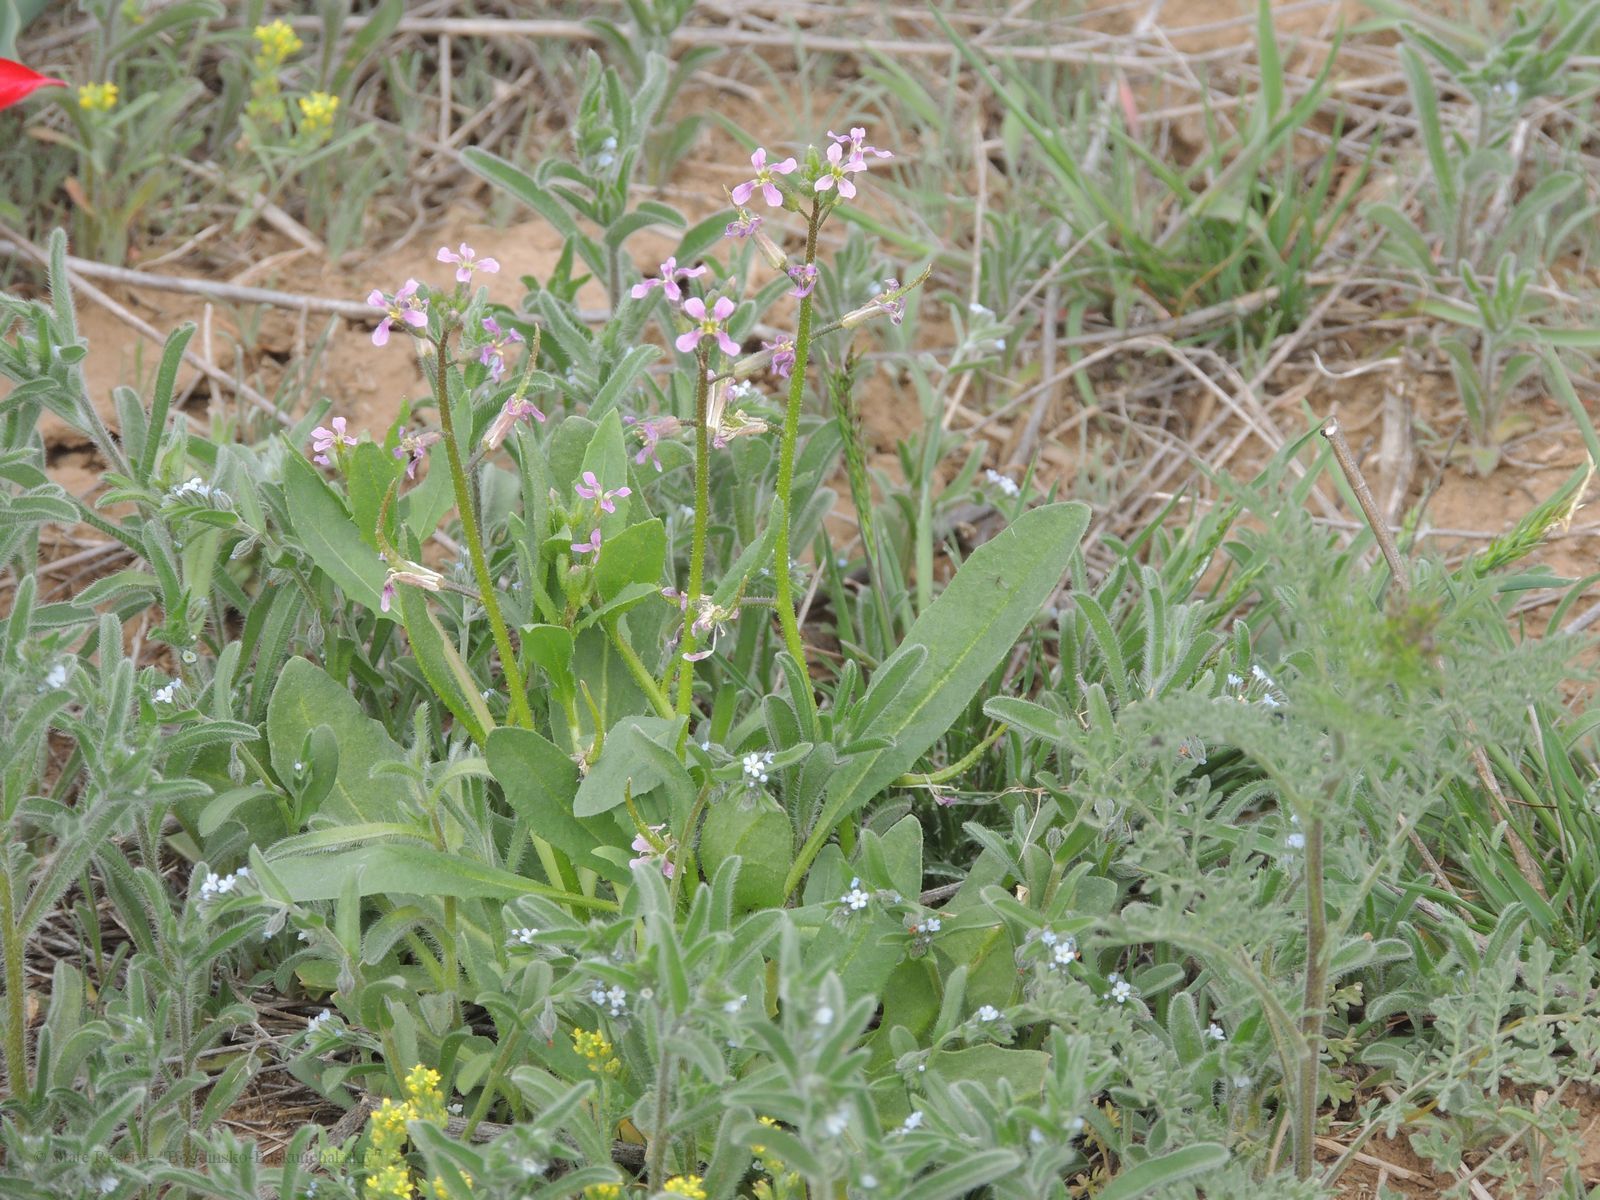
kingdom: Plantae
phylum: Tracheophyta
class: Magnoliopsida
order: Brassicales
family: Brassicaceae
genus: Chorispora
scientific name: Chorispora tenella
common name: Crossflower
